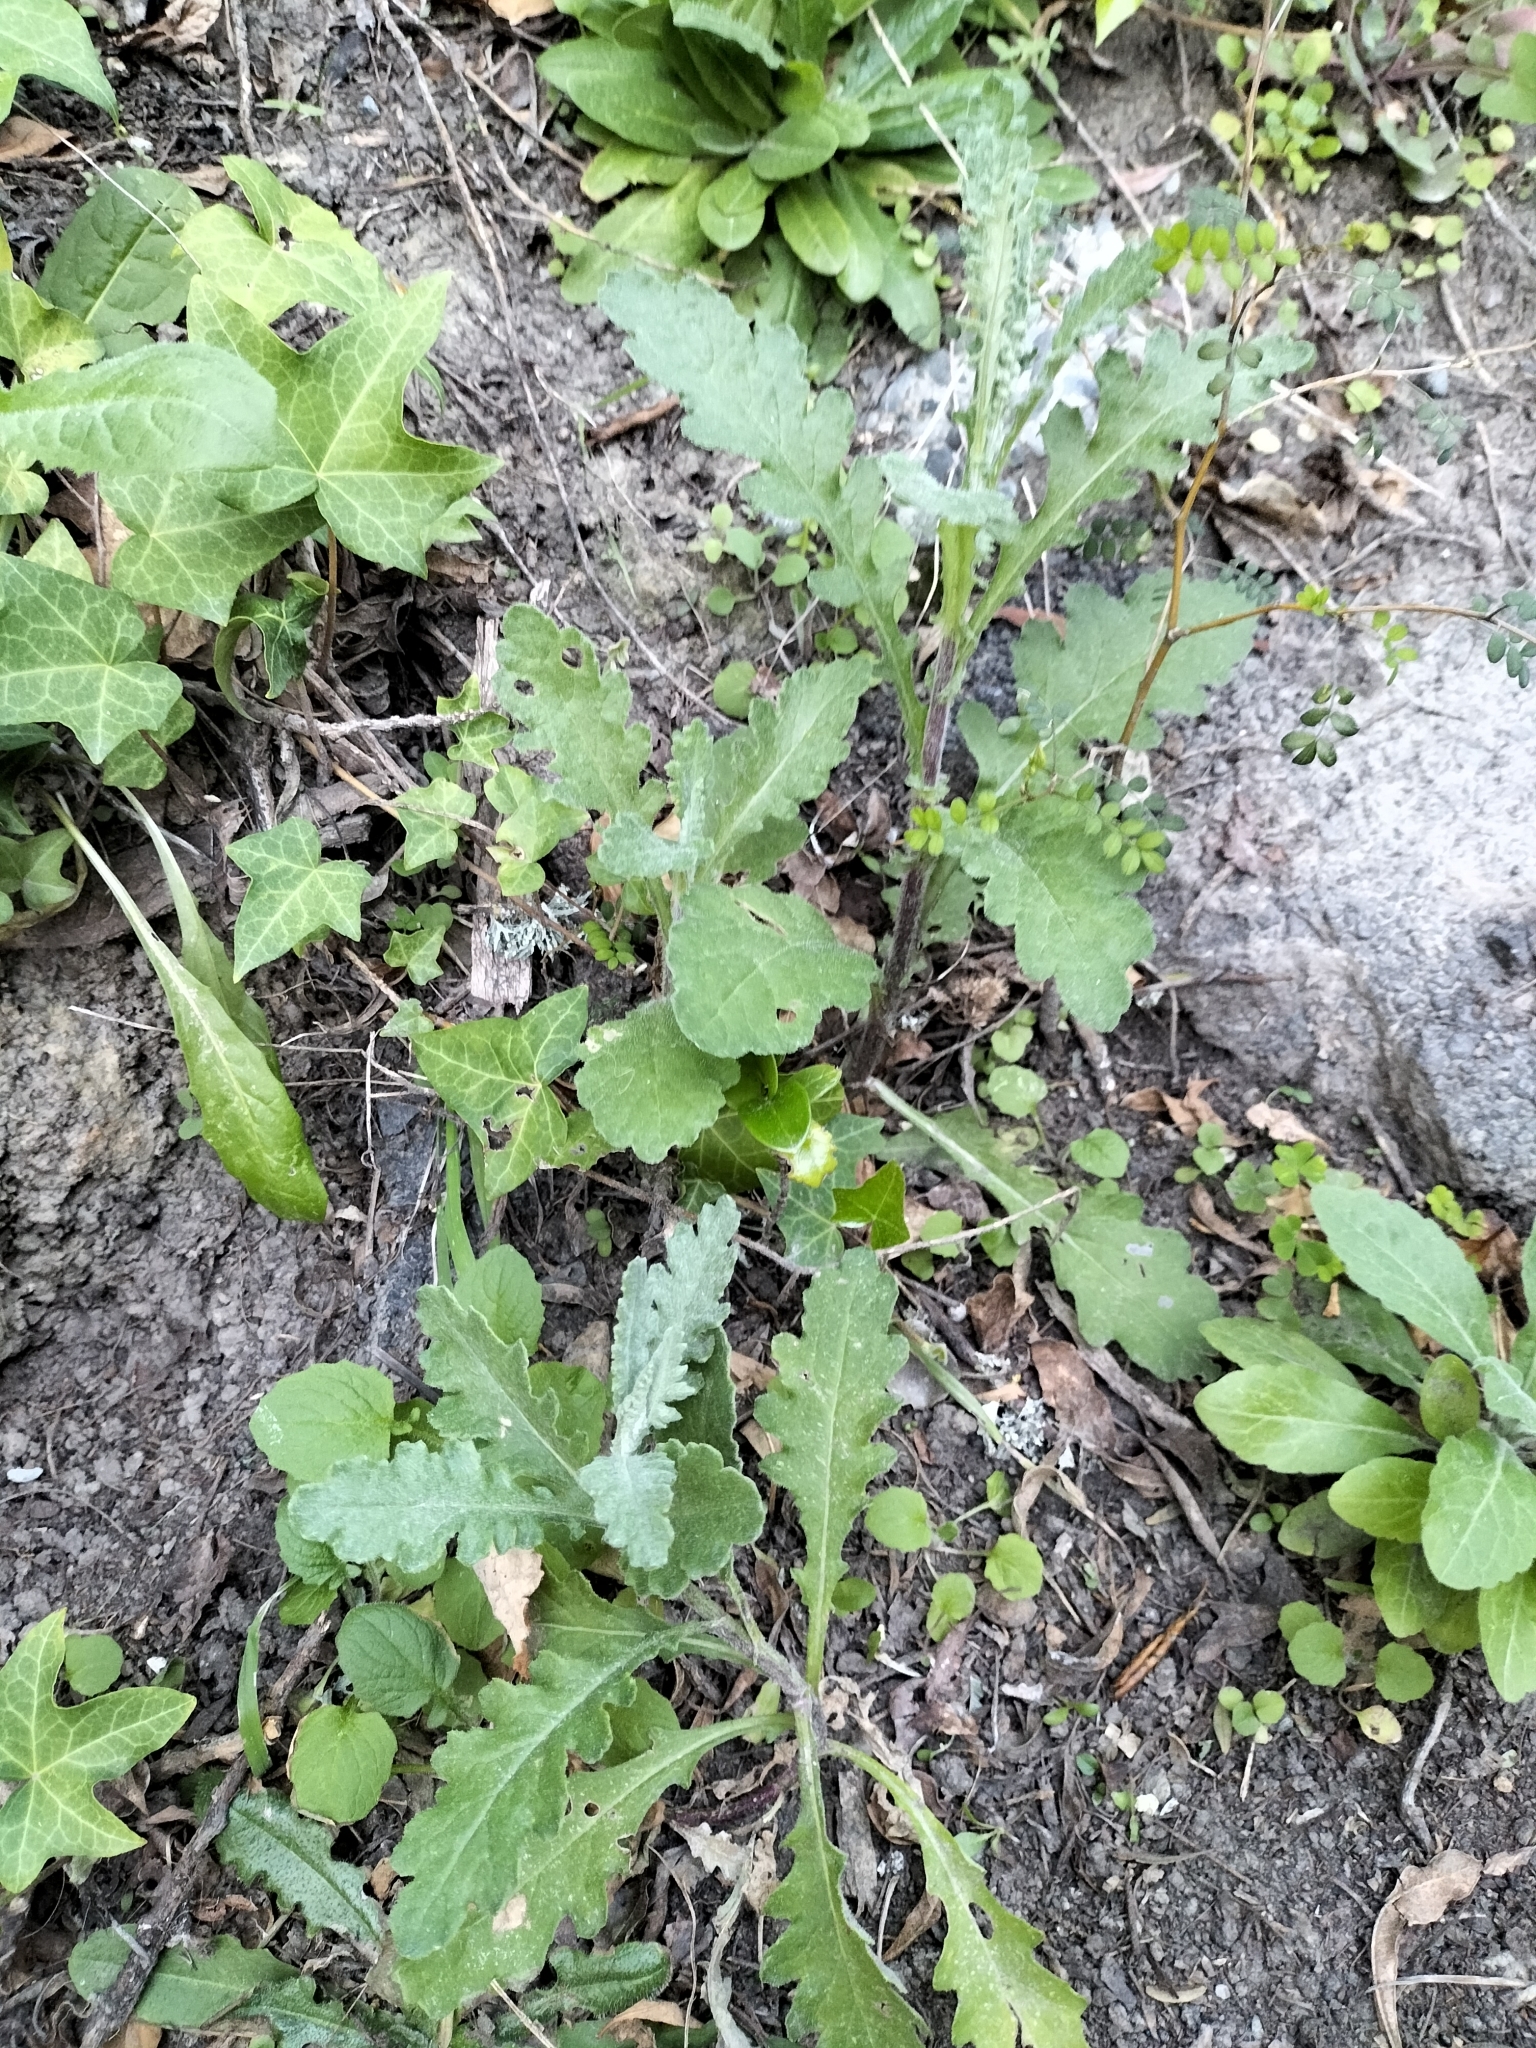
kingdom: Plantae
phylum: Tracheophyta
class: Magnoliopsida
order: Asterales
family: Asteraceae
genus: Senecio
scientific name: Senecio glomeratus
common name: Cutleaf burnweed
